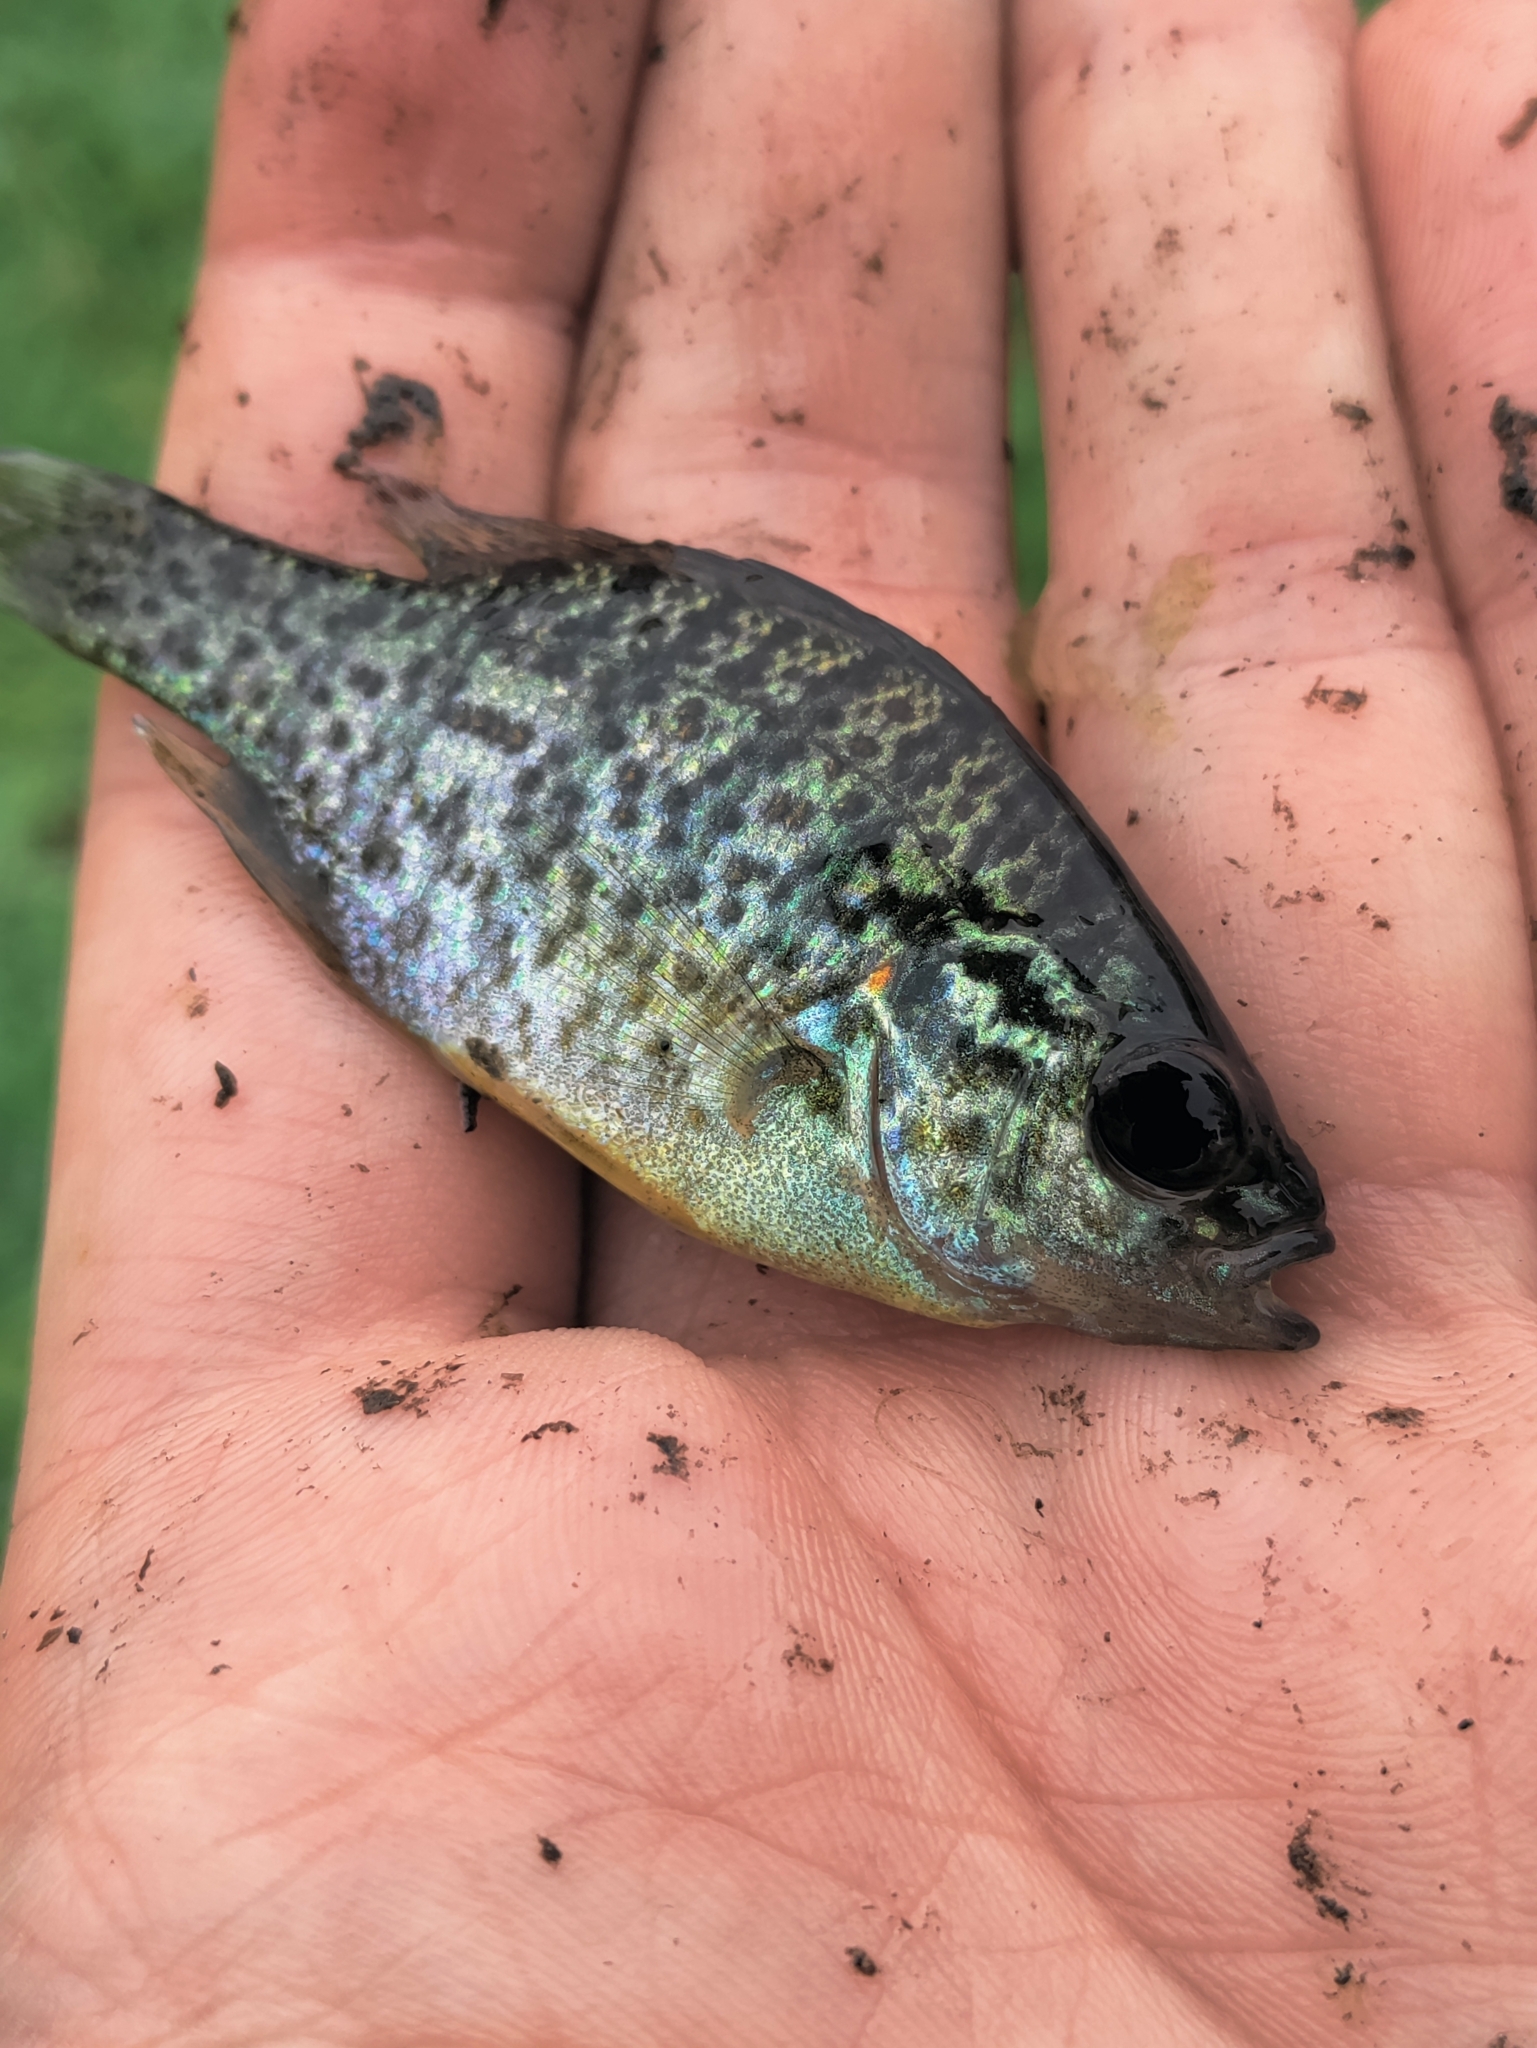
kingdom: Animalia
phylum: Chordata
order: Perciformes
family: Centrarchidae
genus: Lepomis
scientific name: Lepomis gibbosus
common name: Pumpkinseed
